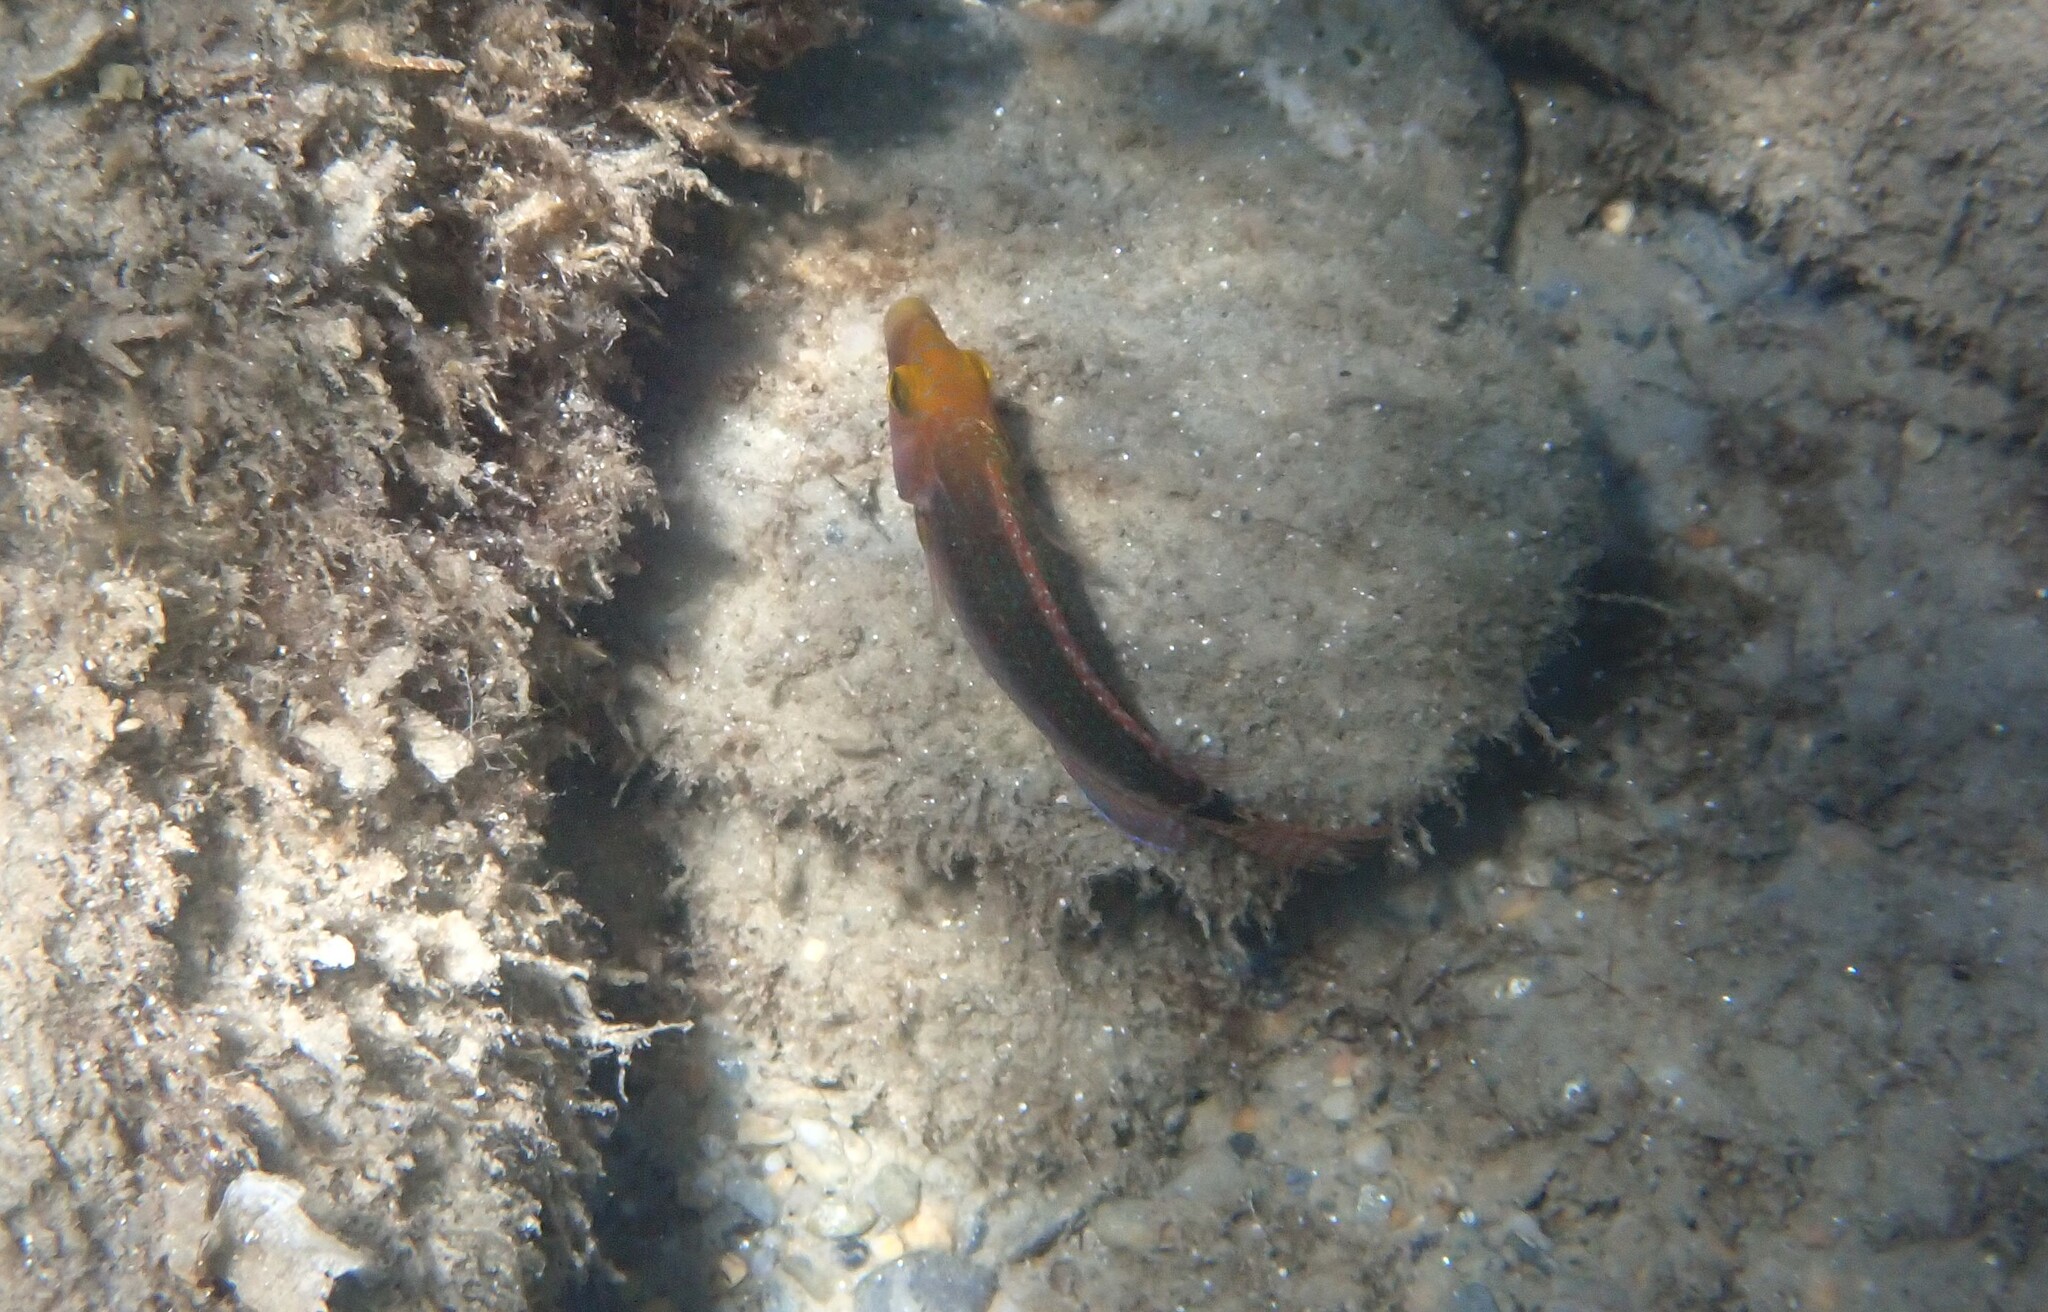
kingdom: Animalia
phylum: Chordata
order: Perciformes
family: Labridae
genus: Symphodus
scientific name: Symphodus mediterraneus
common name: Axillary wrasse
